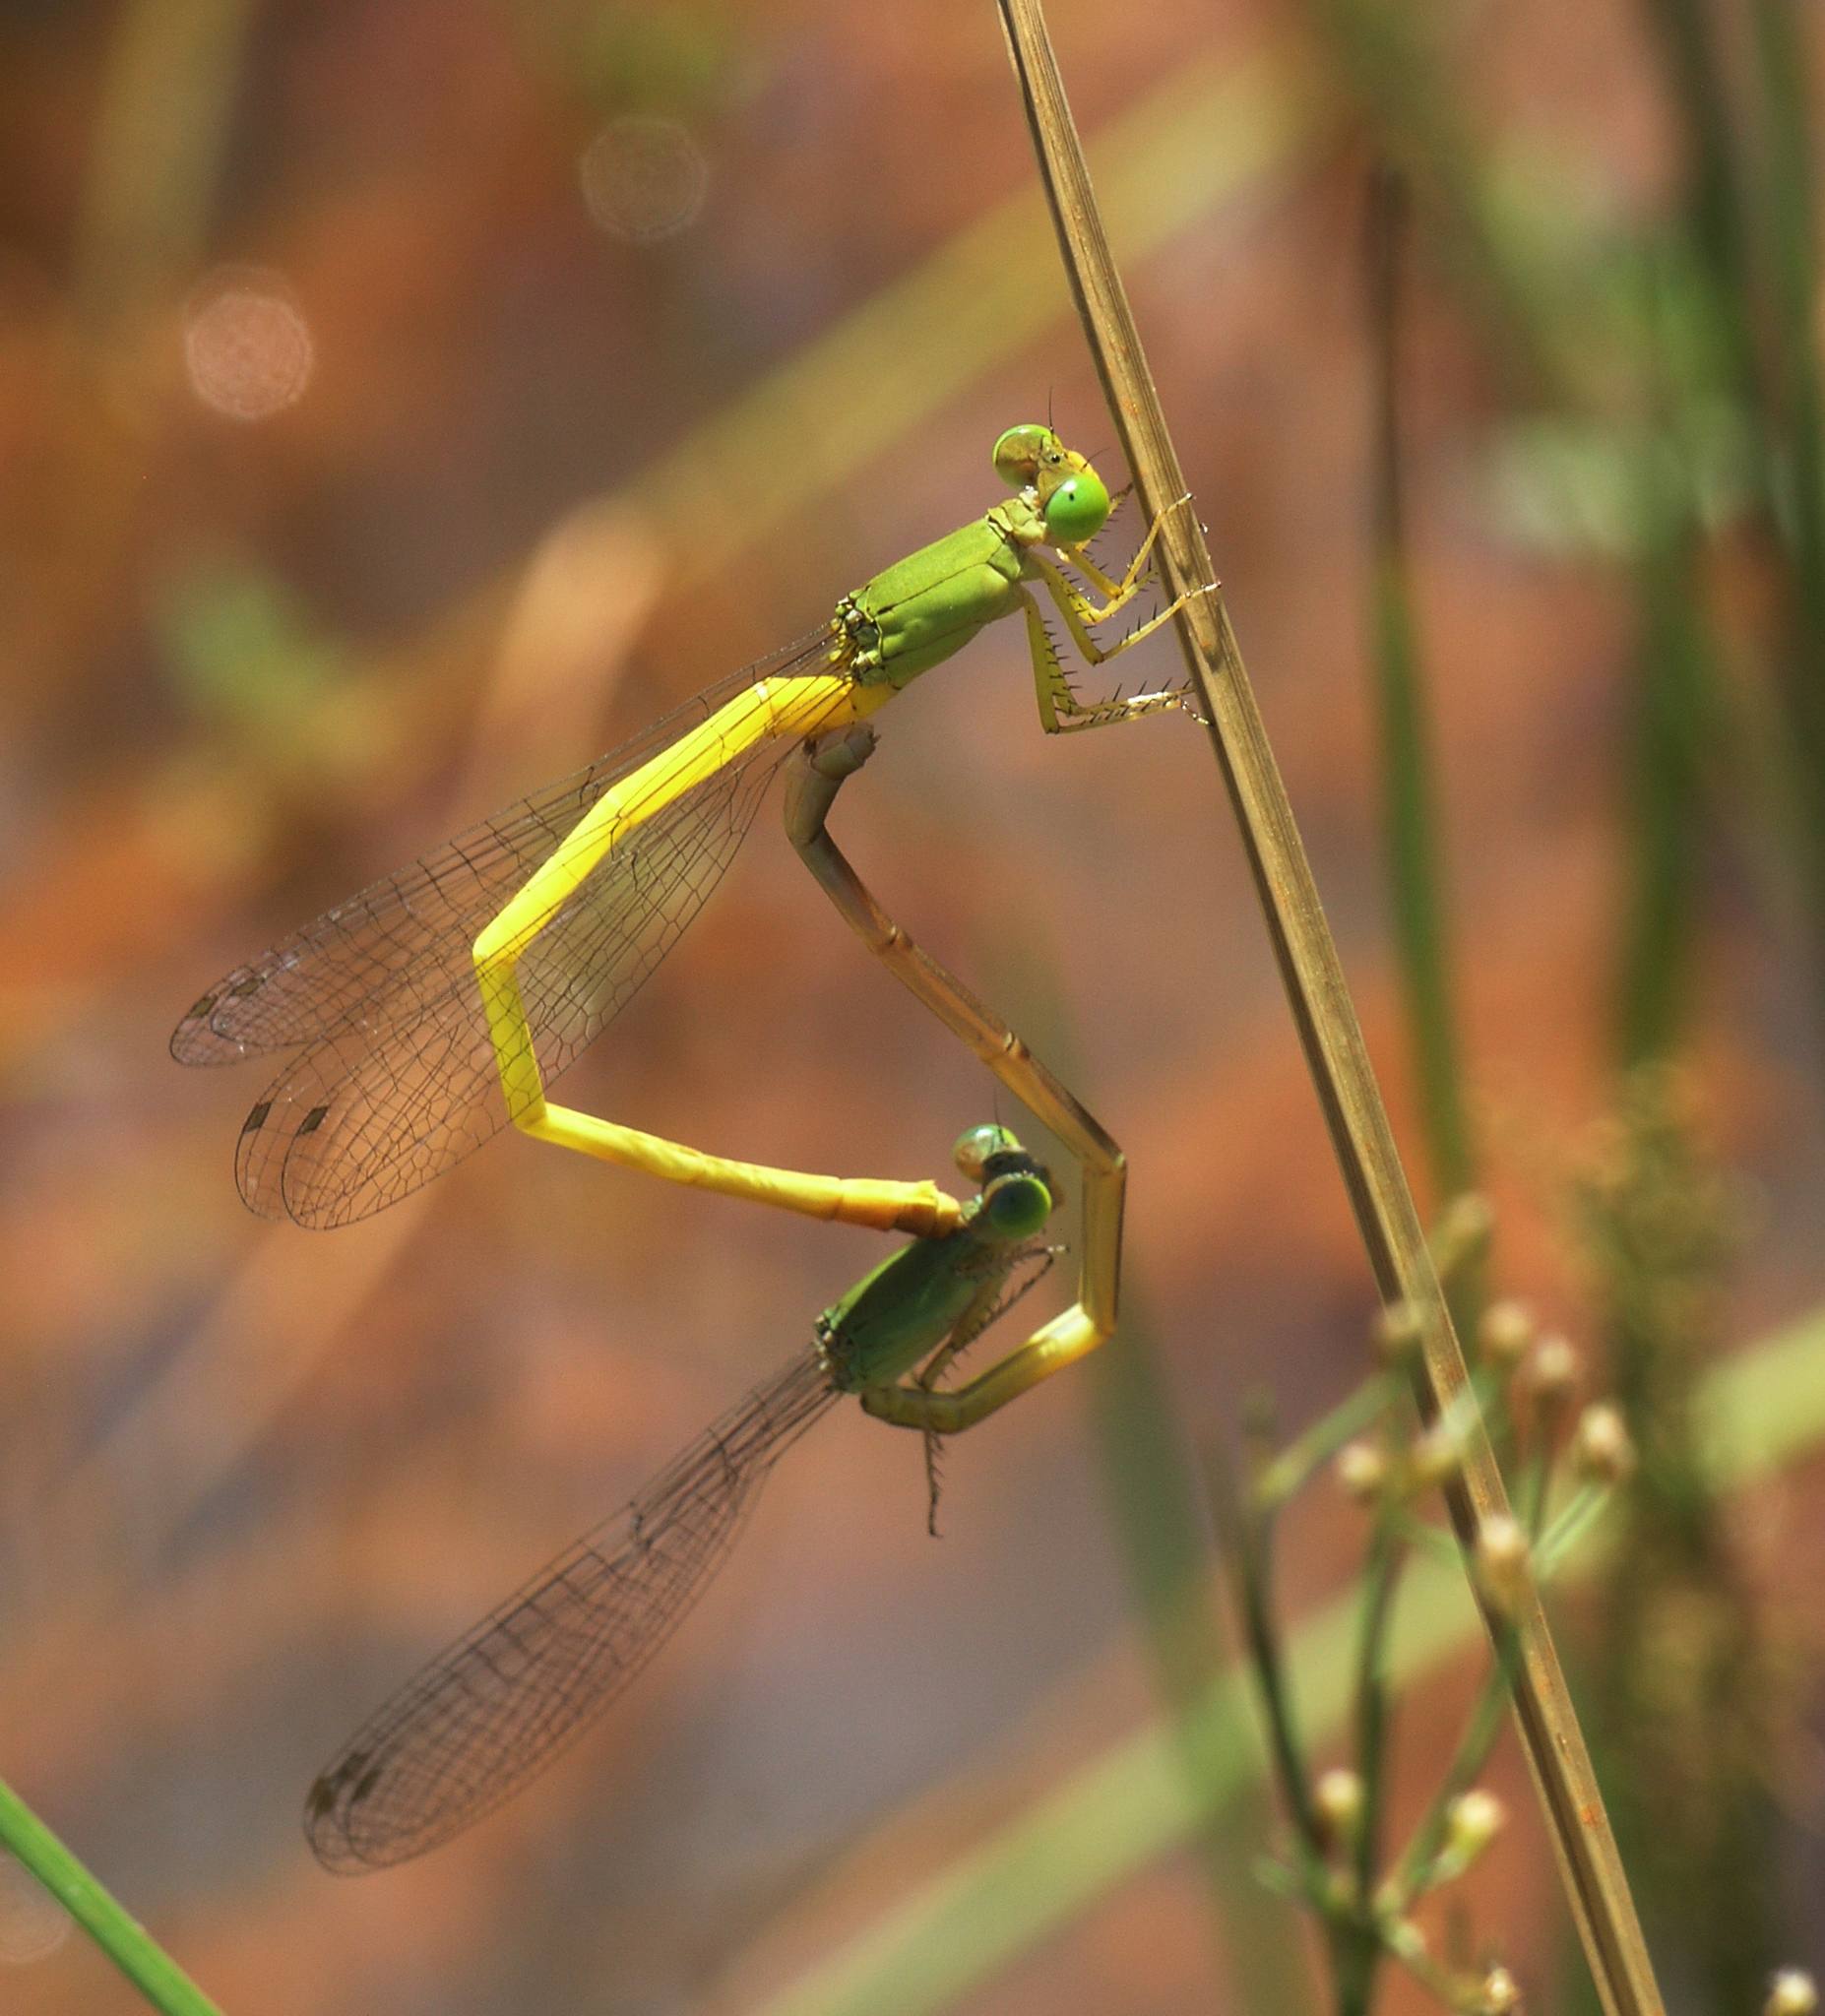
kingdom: Animalia
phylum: Arthropoda
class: Insecta
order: Odonata
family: Coenagrionidae
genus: Ceriagrion
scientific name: Ceriagrion indochinense
